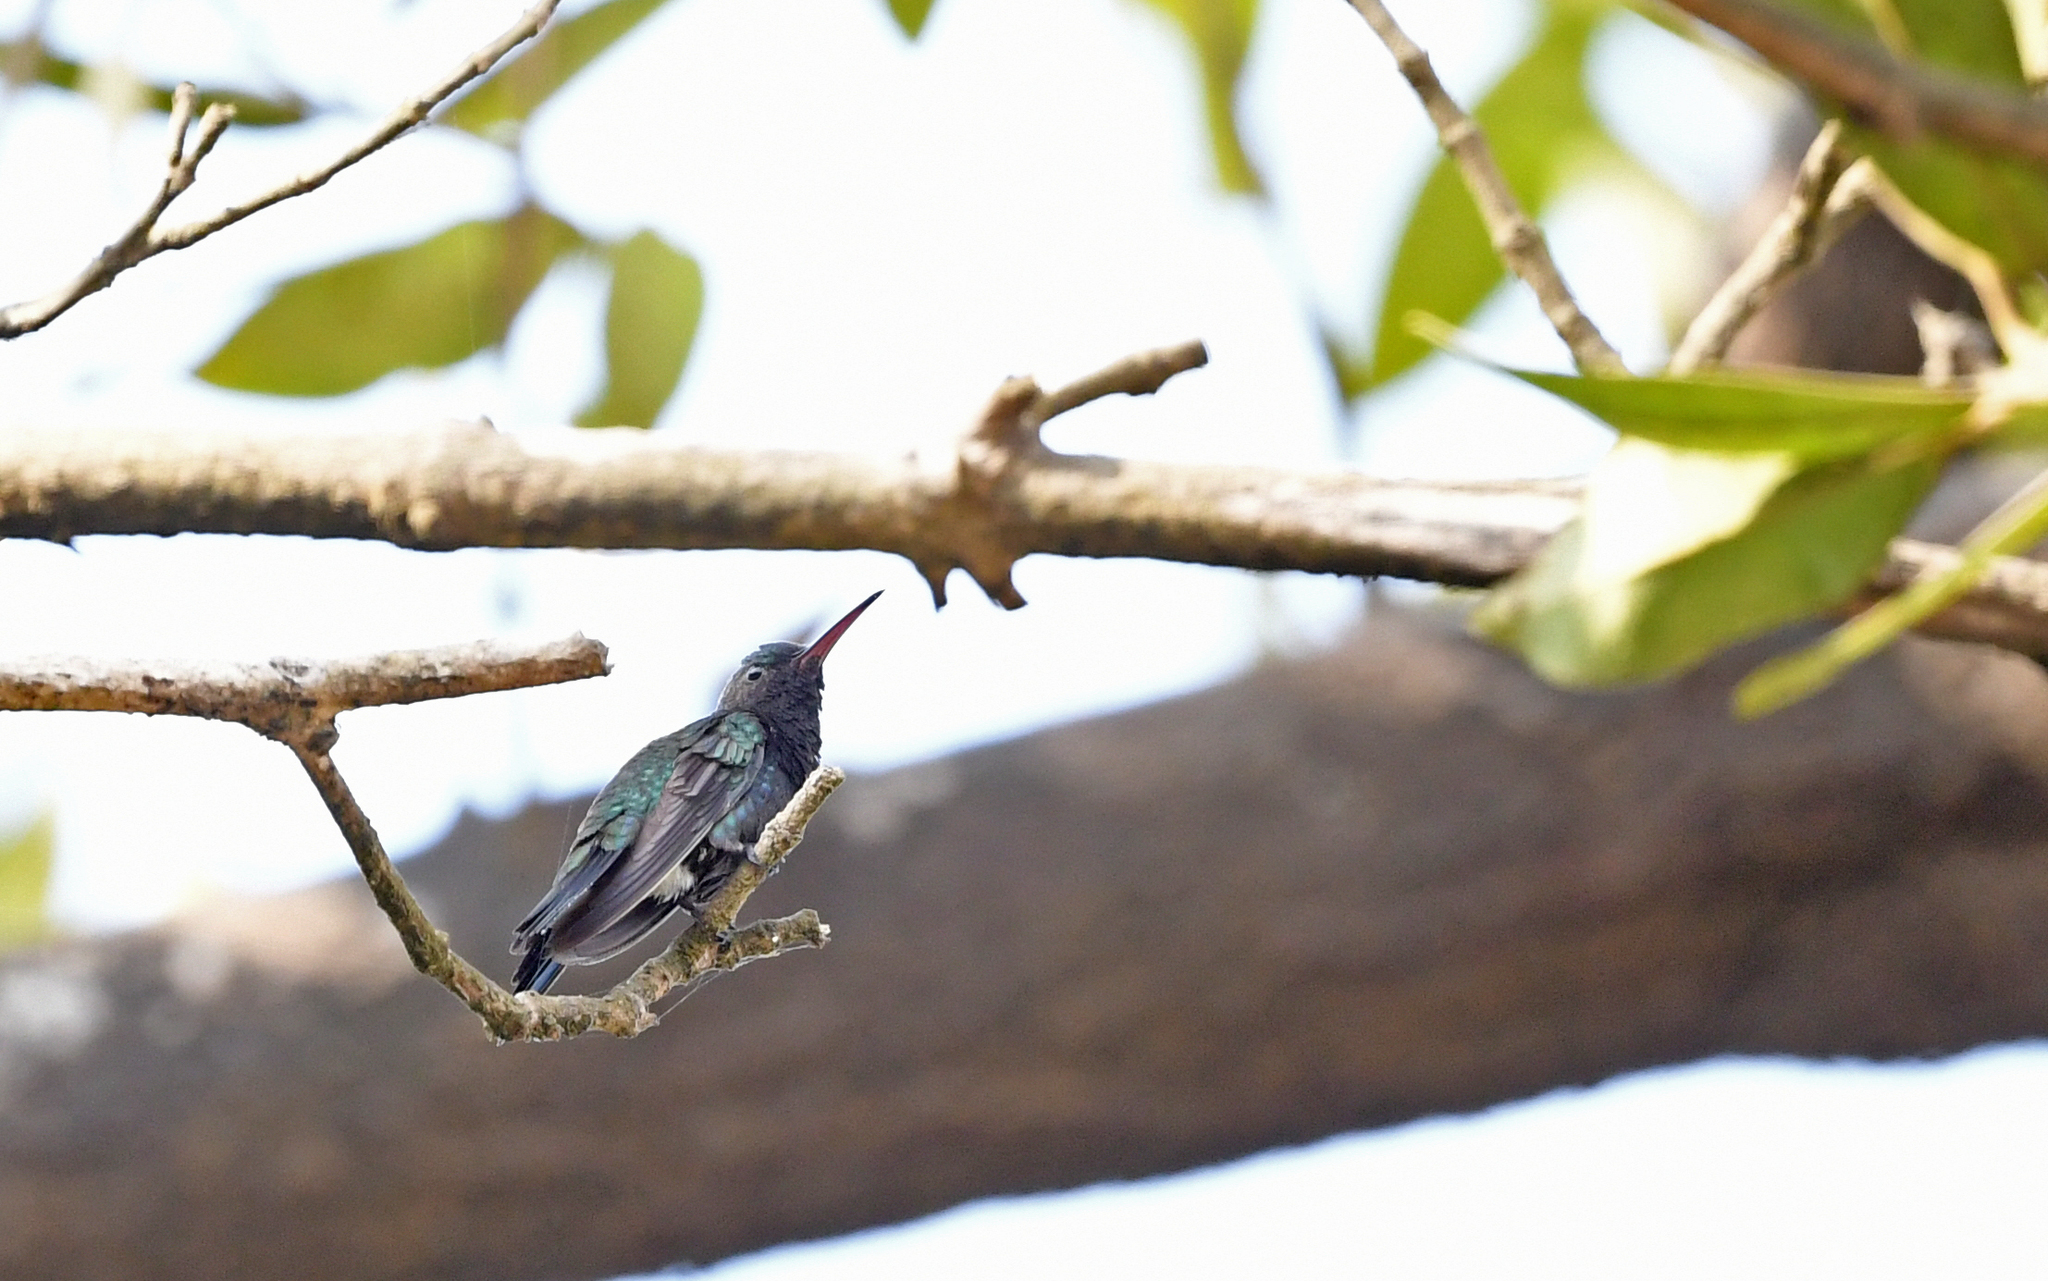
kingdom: Animalia
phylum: Chordata
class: Aves
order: Apodiformes
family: Trochilidae
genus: Chrysuronia
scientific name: Chrysuronia lilliae
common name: Sapphire-bellied hummingbird
